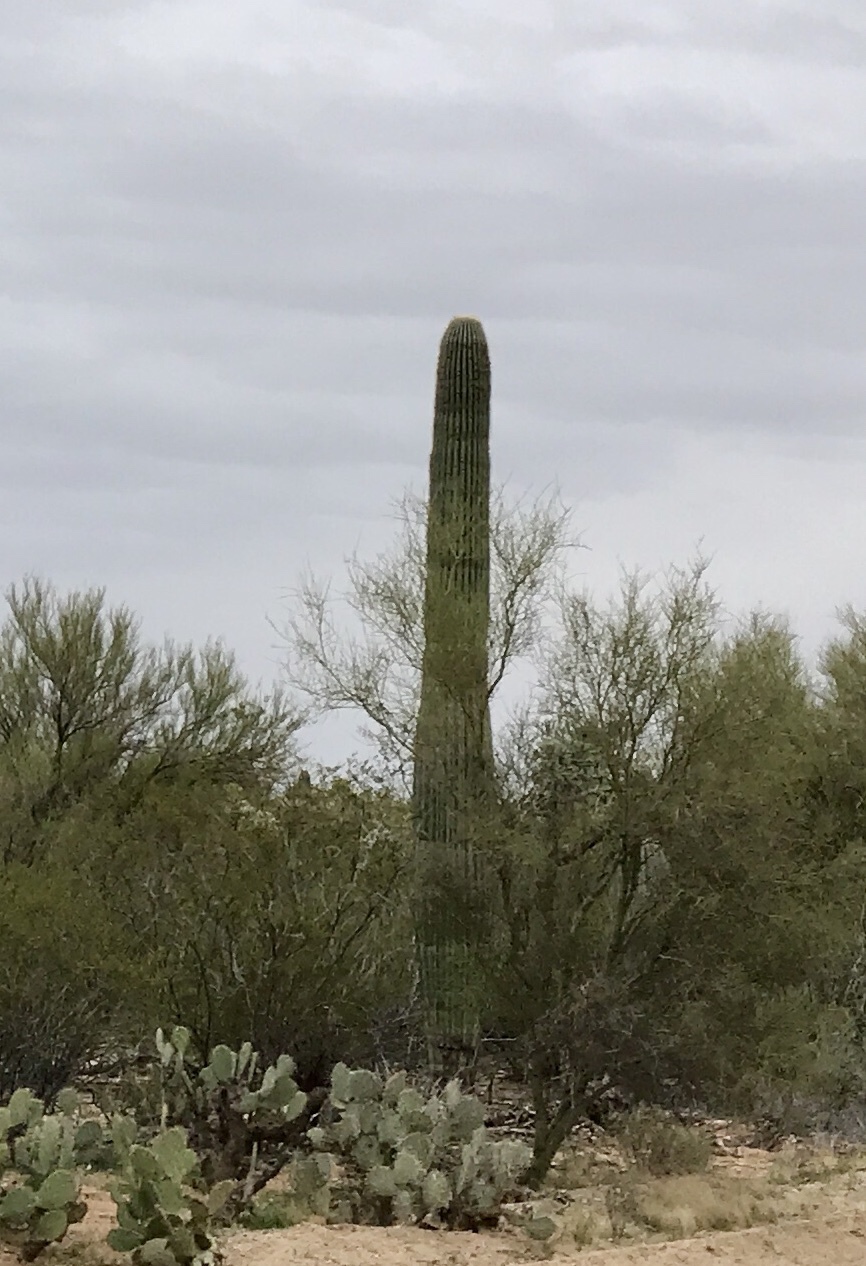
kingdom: Plantae
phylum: Tracheophyta
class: Magnoliopsida
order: Caryophyllales
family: Cactaceae
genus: Carnegiea
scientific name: Carnegiea gigantea
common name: Saguaro
